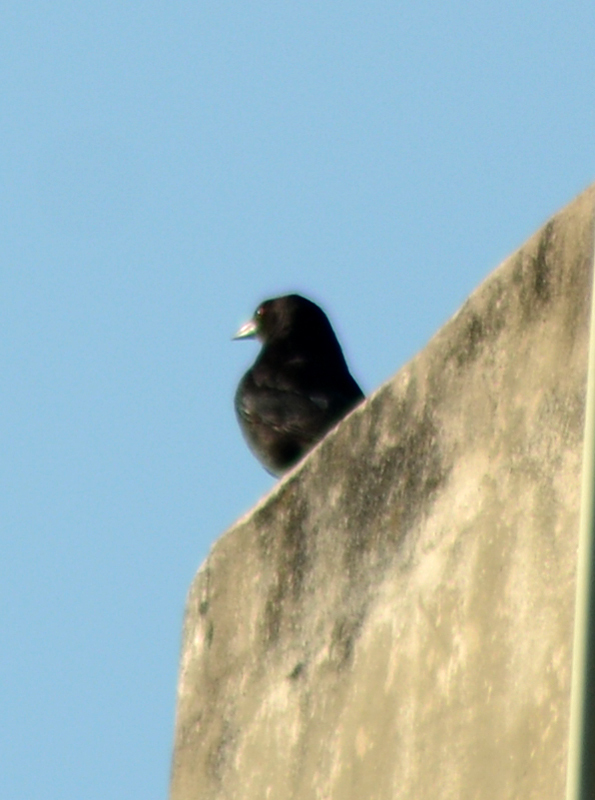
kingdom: Animalia
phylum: Chordata
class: Aves
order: Passeriformes
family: Icteridae
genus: Molothrus
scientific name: Molothrus aeneus
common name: Bronzed cowbird
